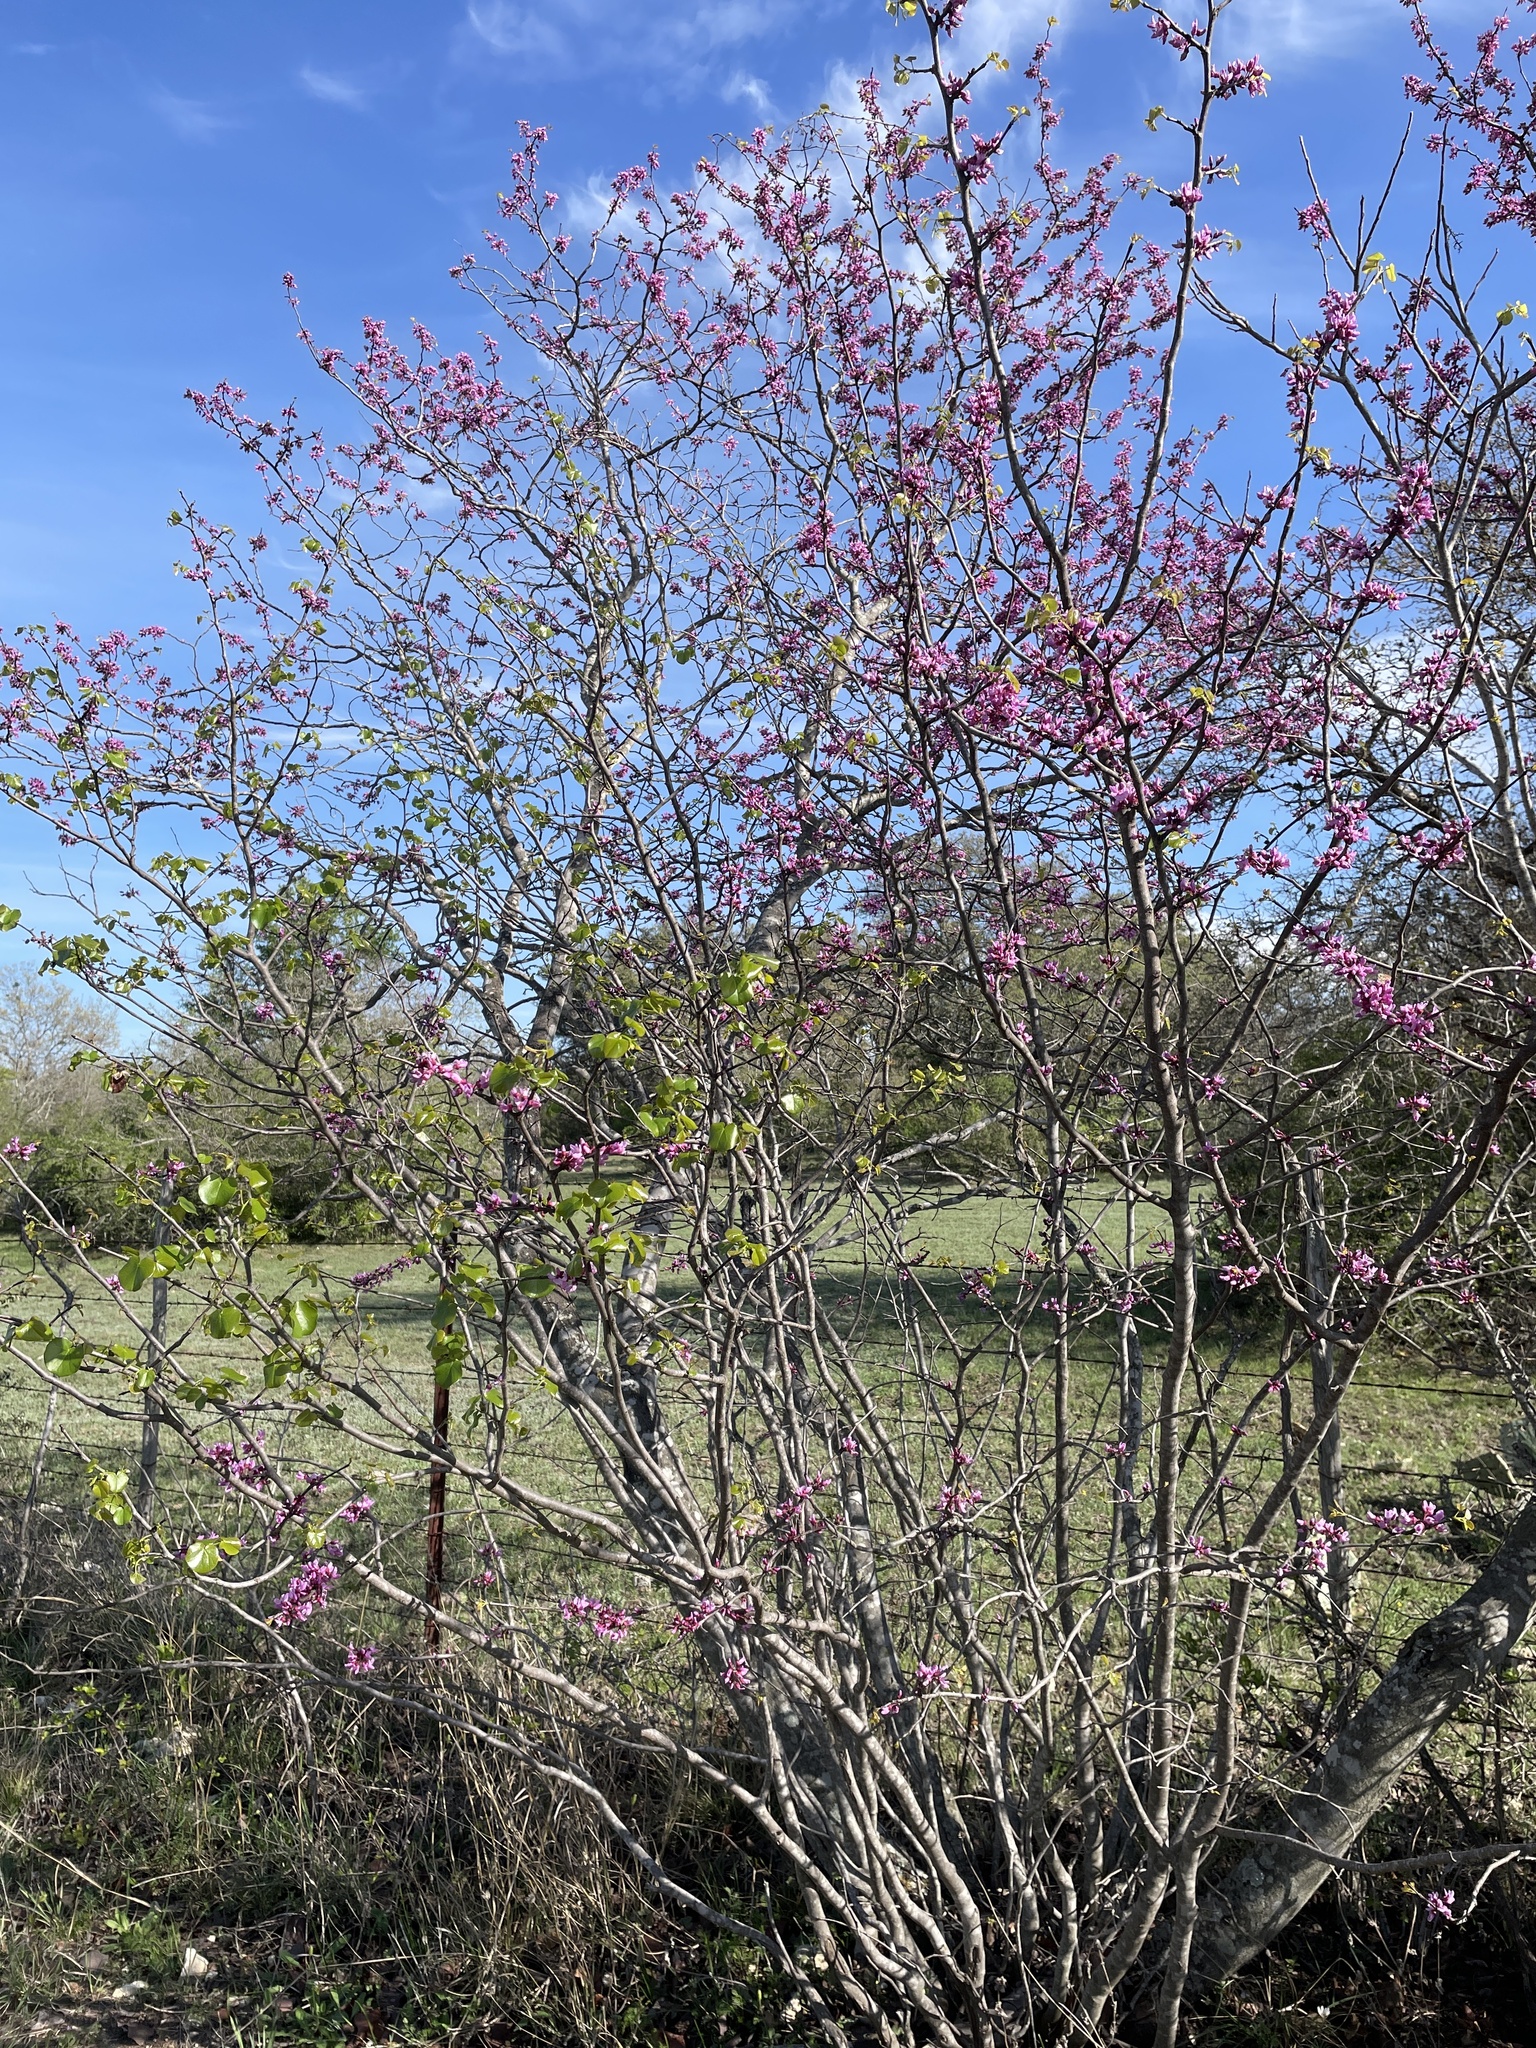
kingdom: Plantae
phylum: Tracheophyta
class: Magnoliopsida
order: Fabales
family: Fabaceae
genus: Cercis
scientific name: Cercis canadensis
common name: Eastern redbud
